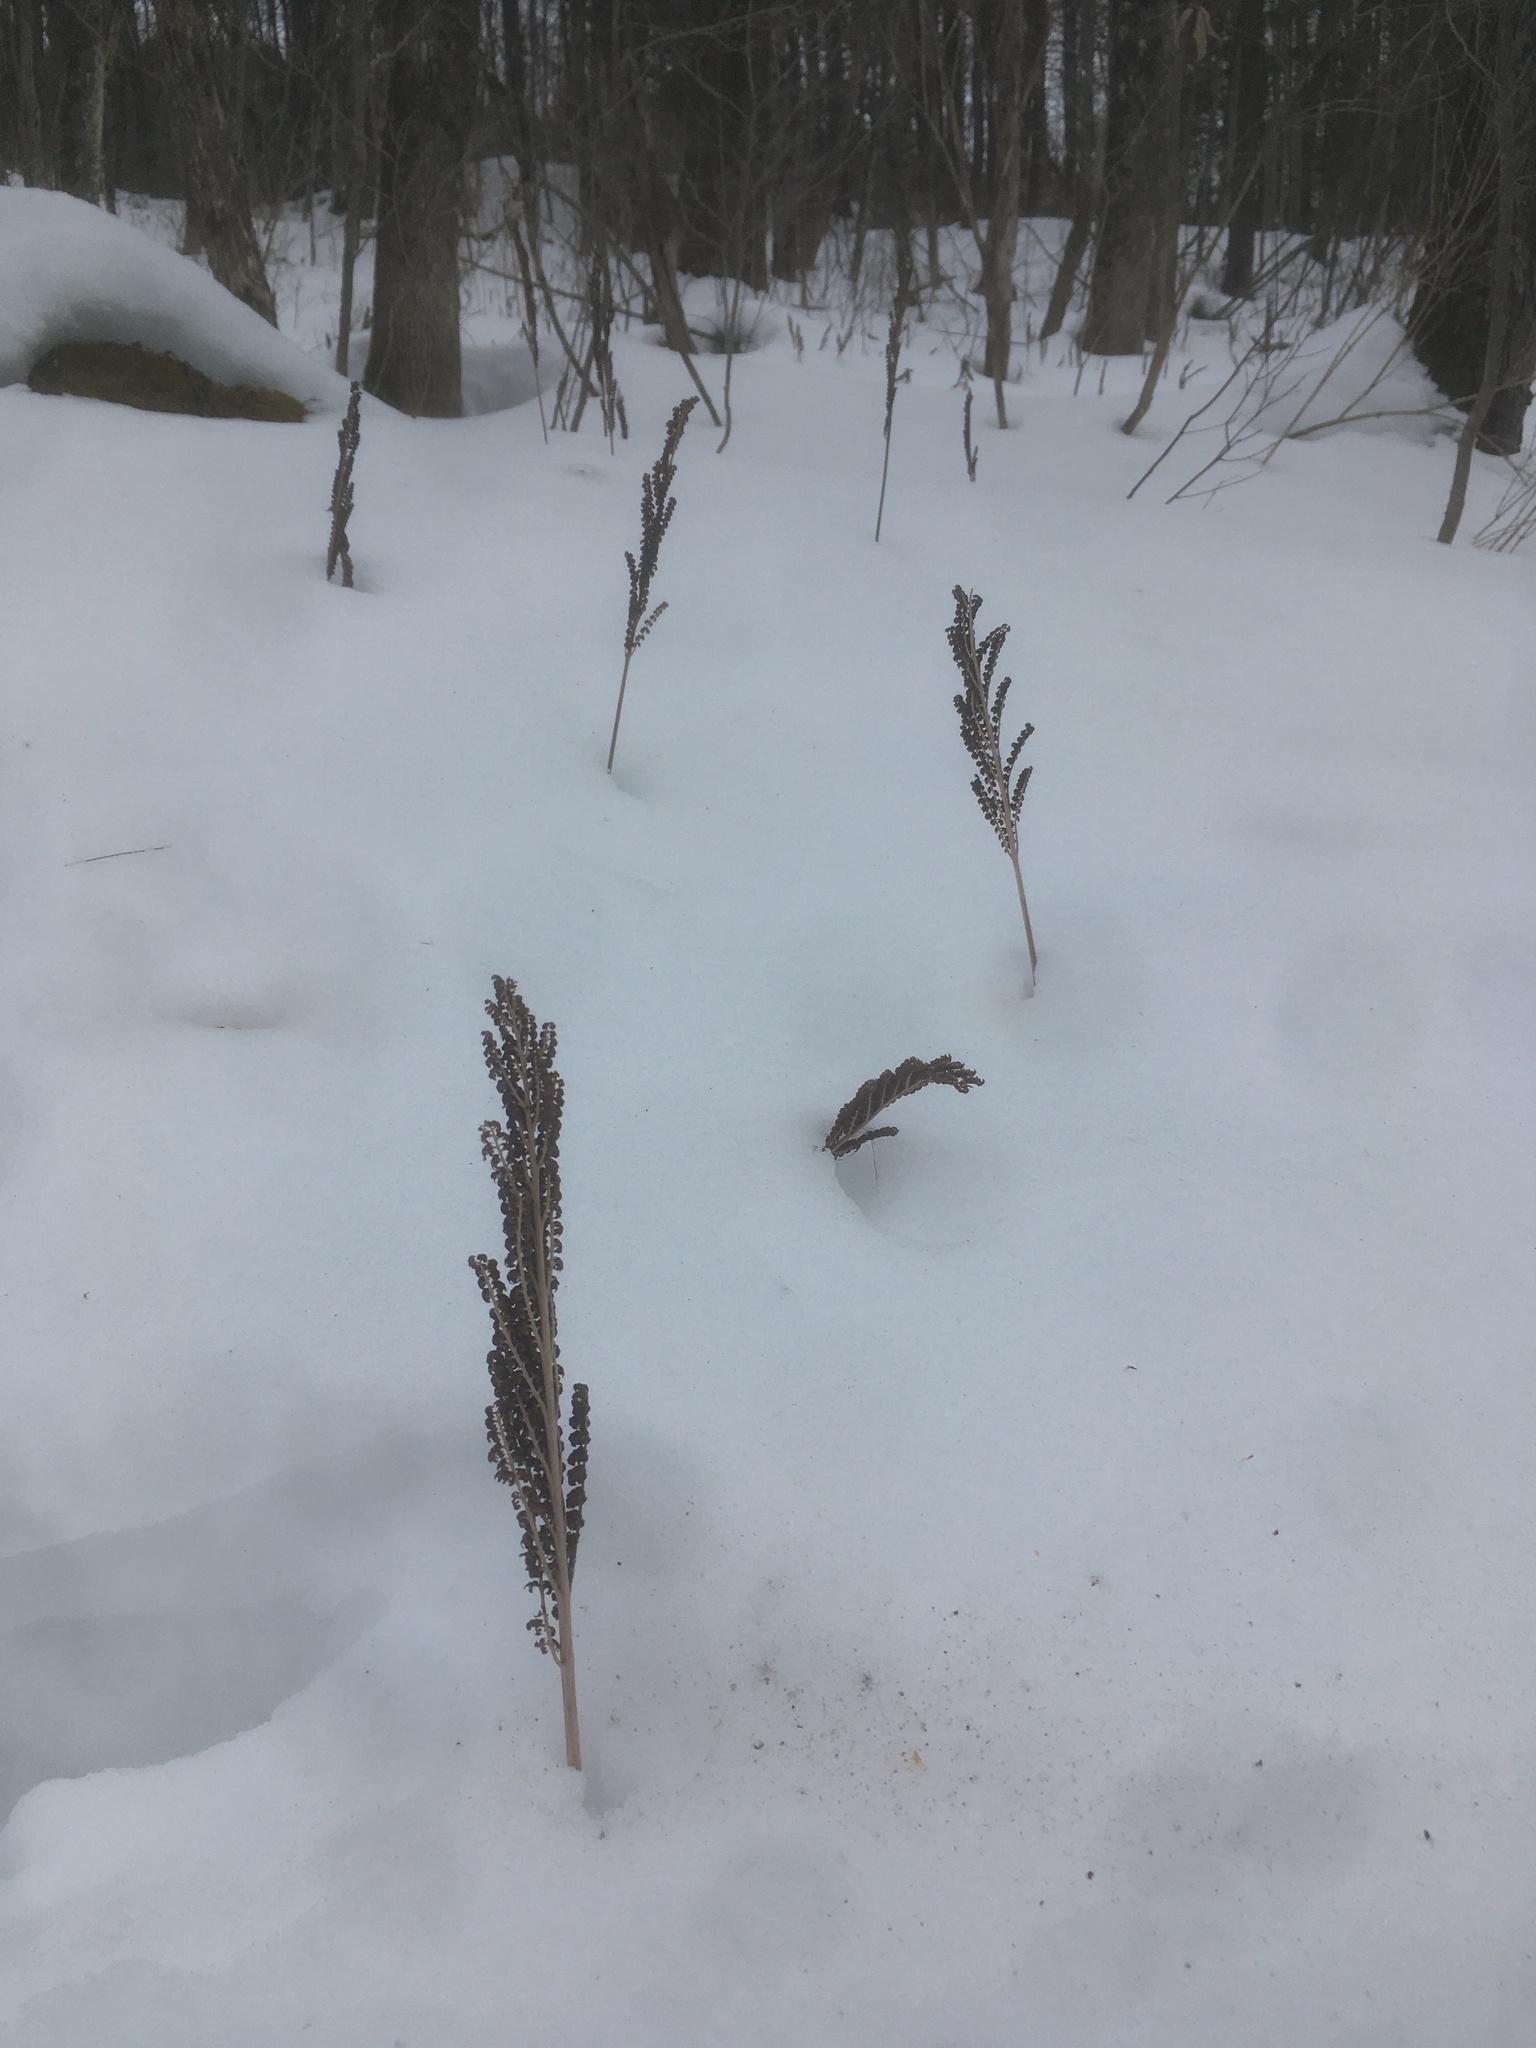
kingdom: Plantae
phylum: Tracheophyta
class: Polypodiopsida
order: Polypodiales
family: Onocleaceae
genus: Onoclea
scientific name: Onoclea sensibilis
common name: Sensitive fern
